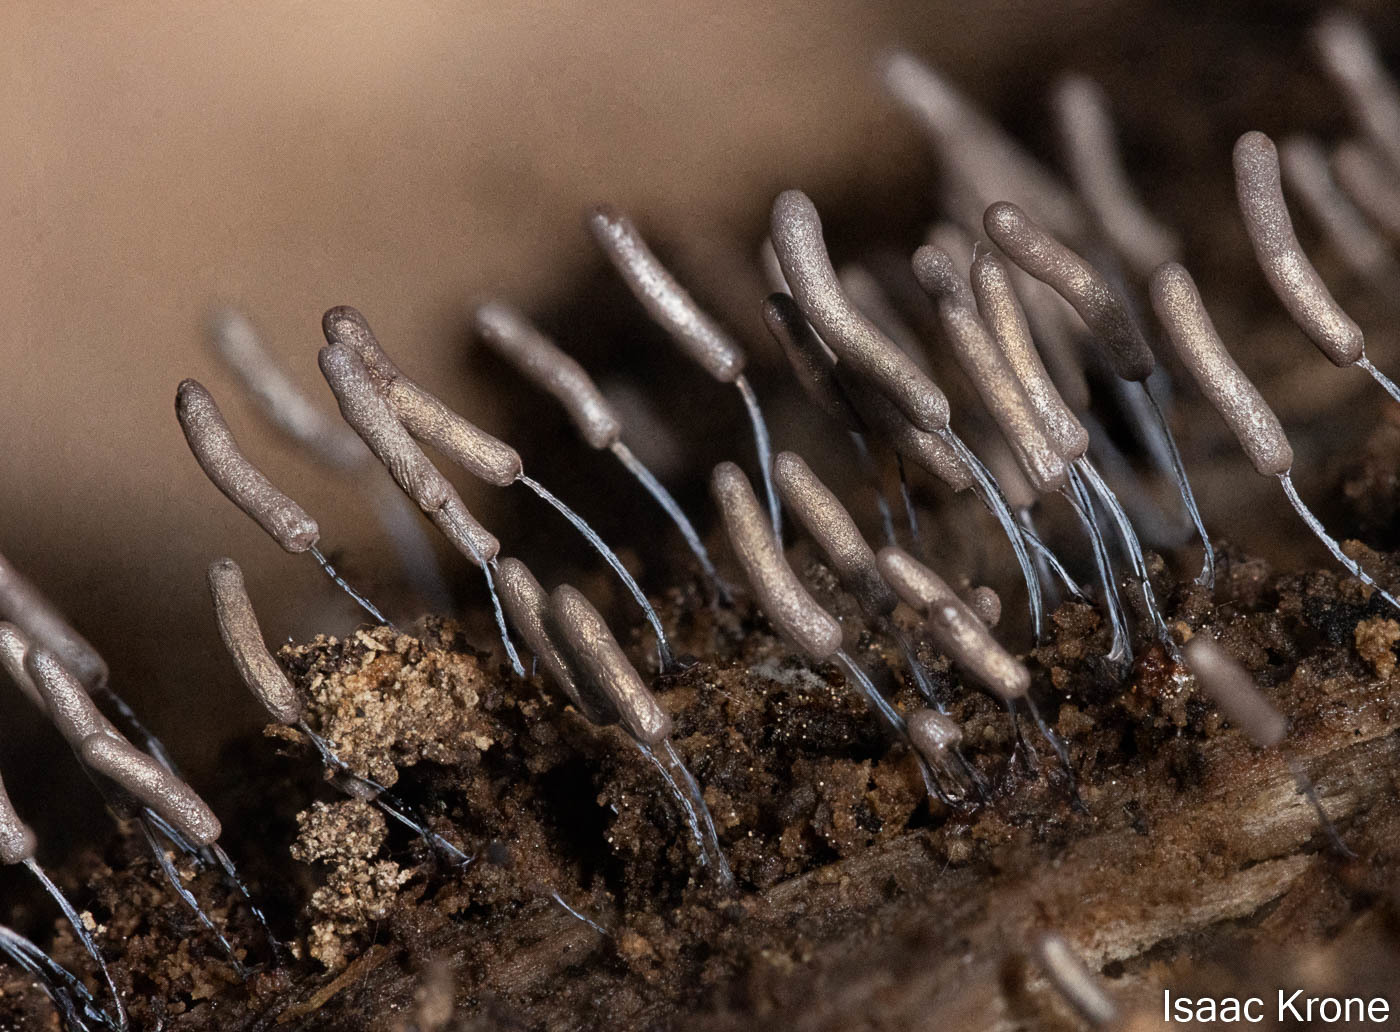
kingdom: Protozoa
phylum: Mycetozoa
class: Myxomycetes
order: Stemonitidales
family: Stemonitidaceae
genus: Stemonitopsis
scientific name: Stemonitopsis typhina
